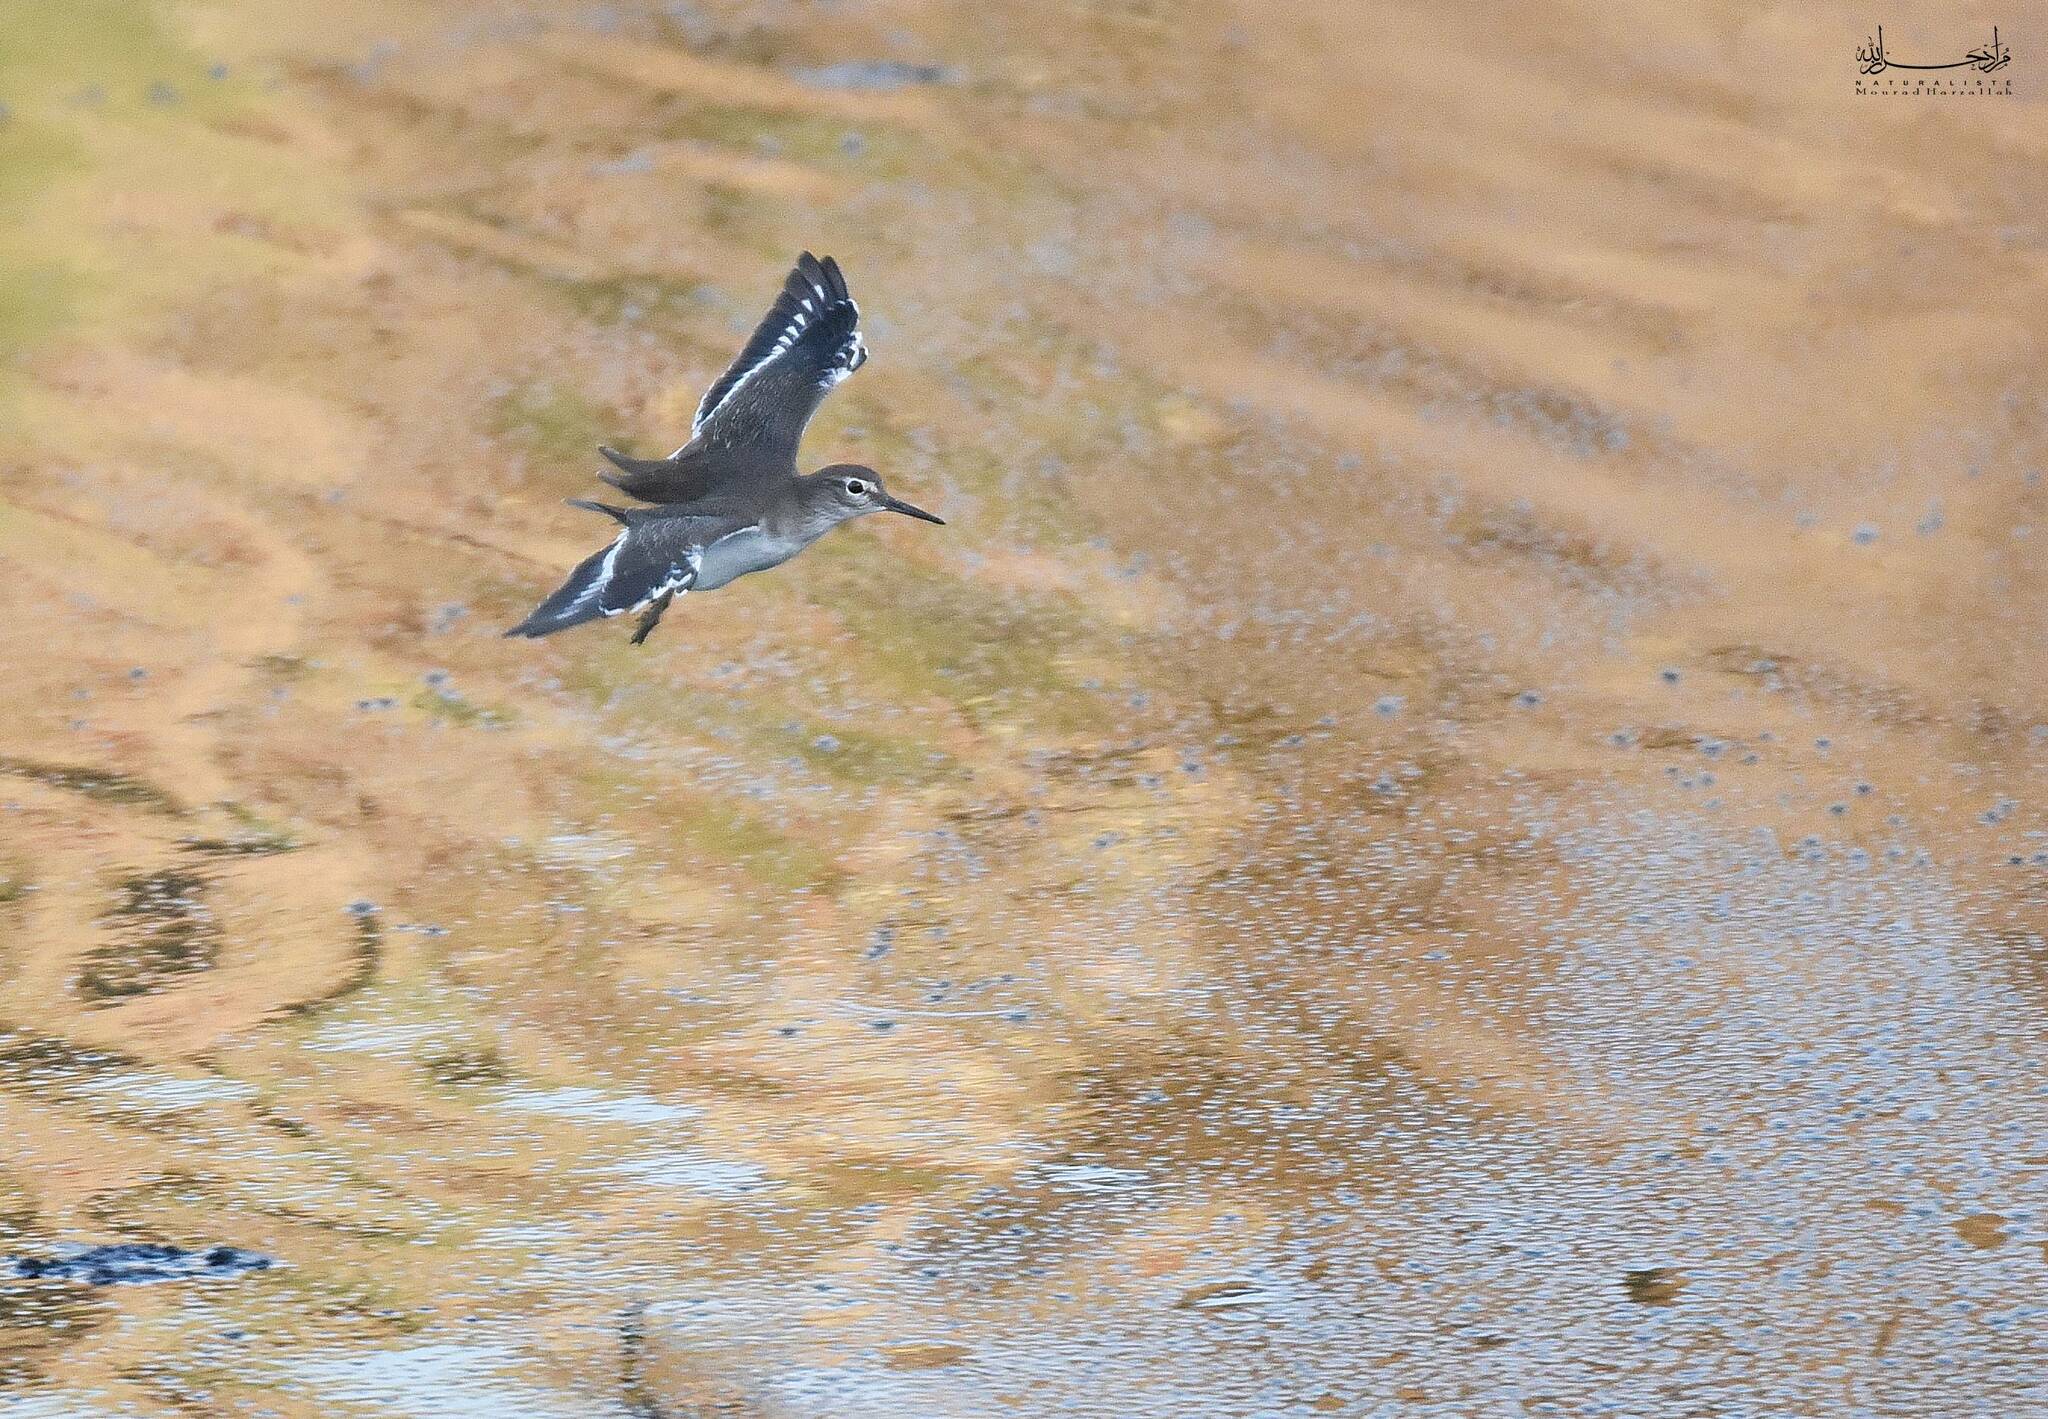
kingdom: Animalia
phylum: Chordata
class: Aves
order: Charadriiformes
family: Scolopacidae
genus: Actitis
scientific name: Actitis hypoleucos
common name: Common sandpiper
